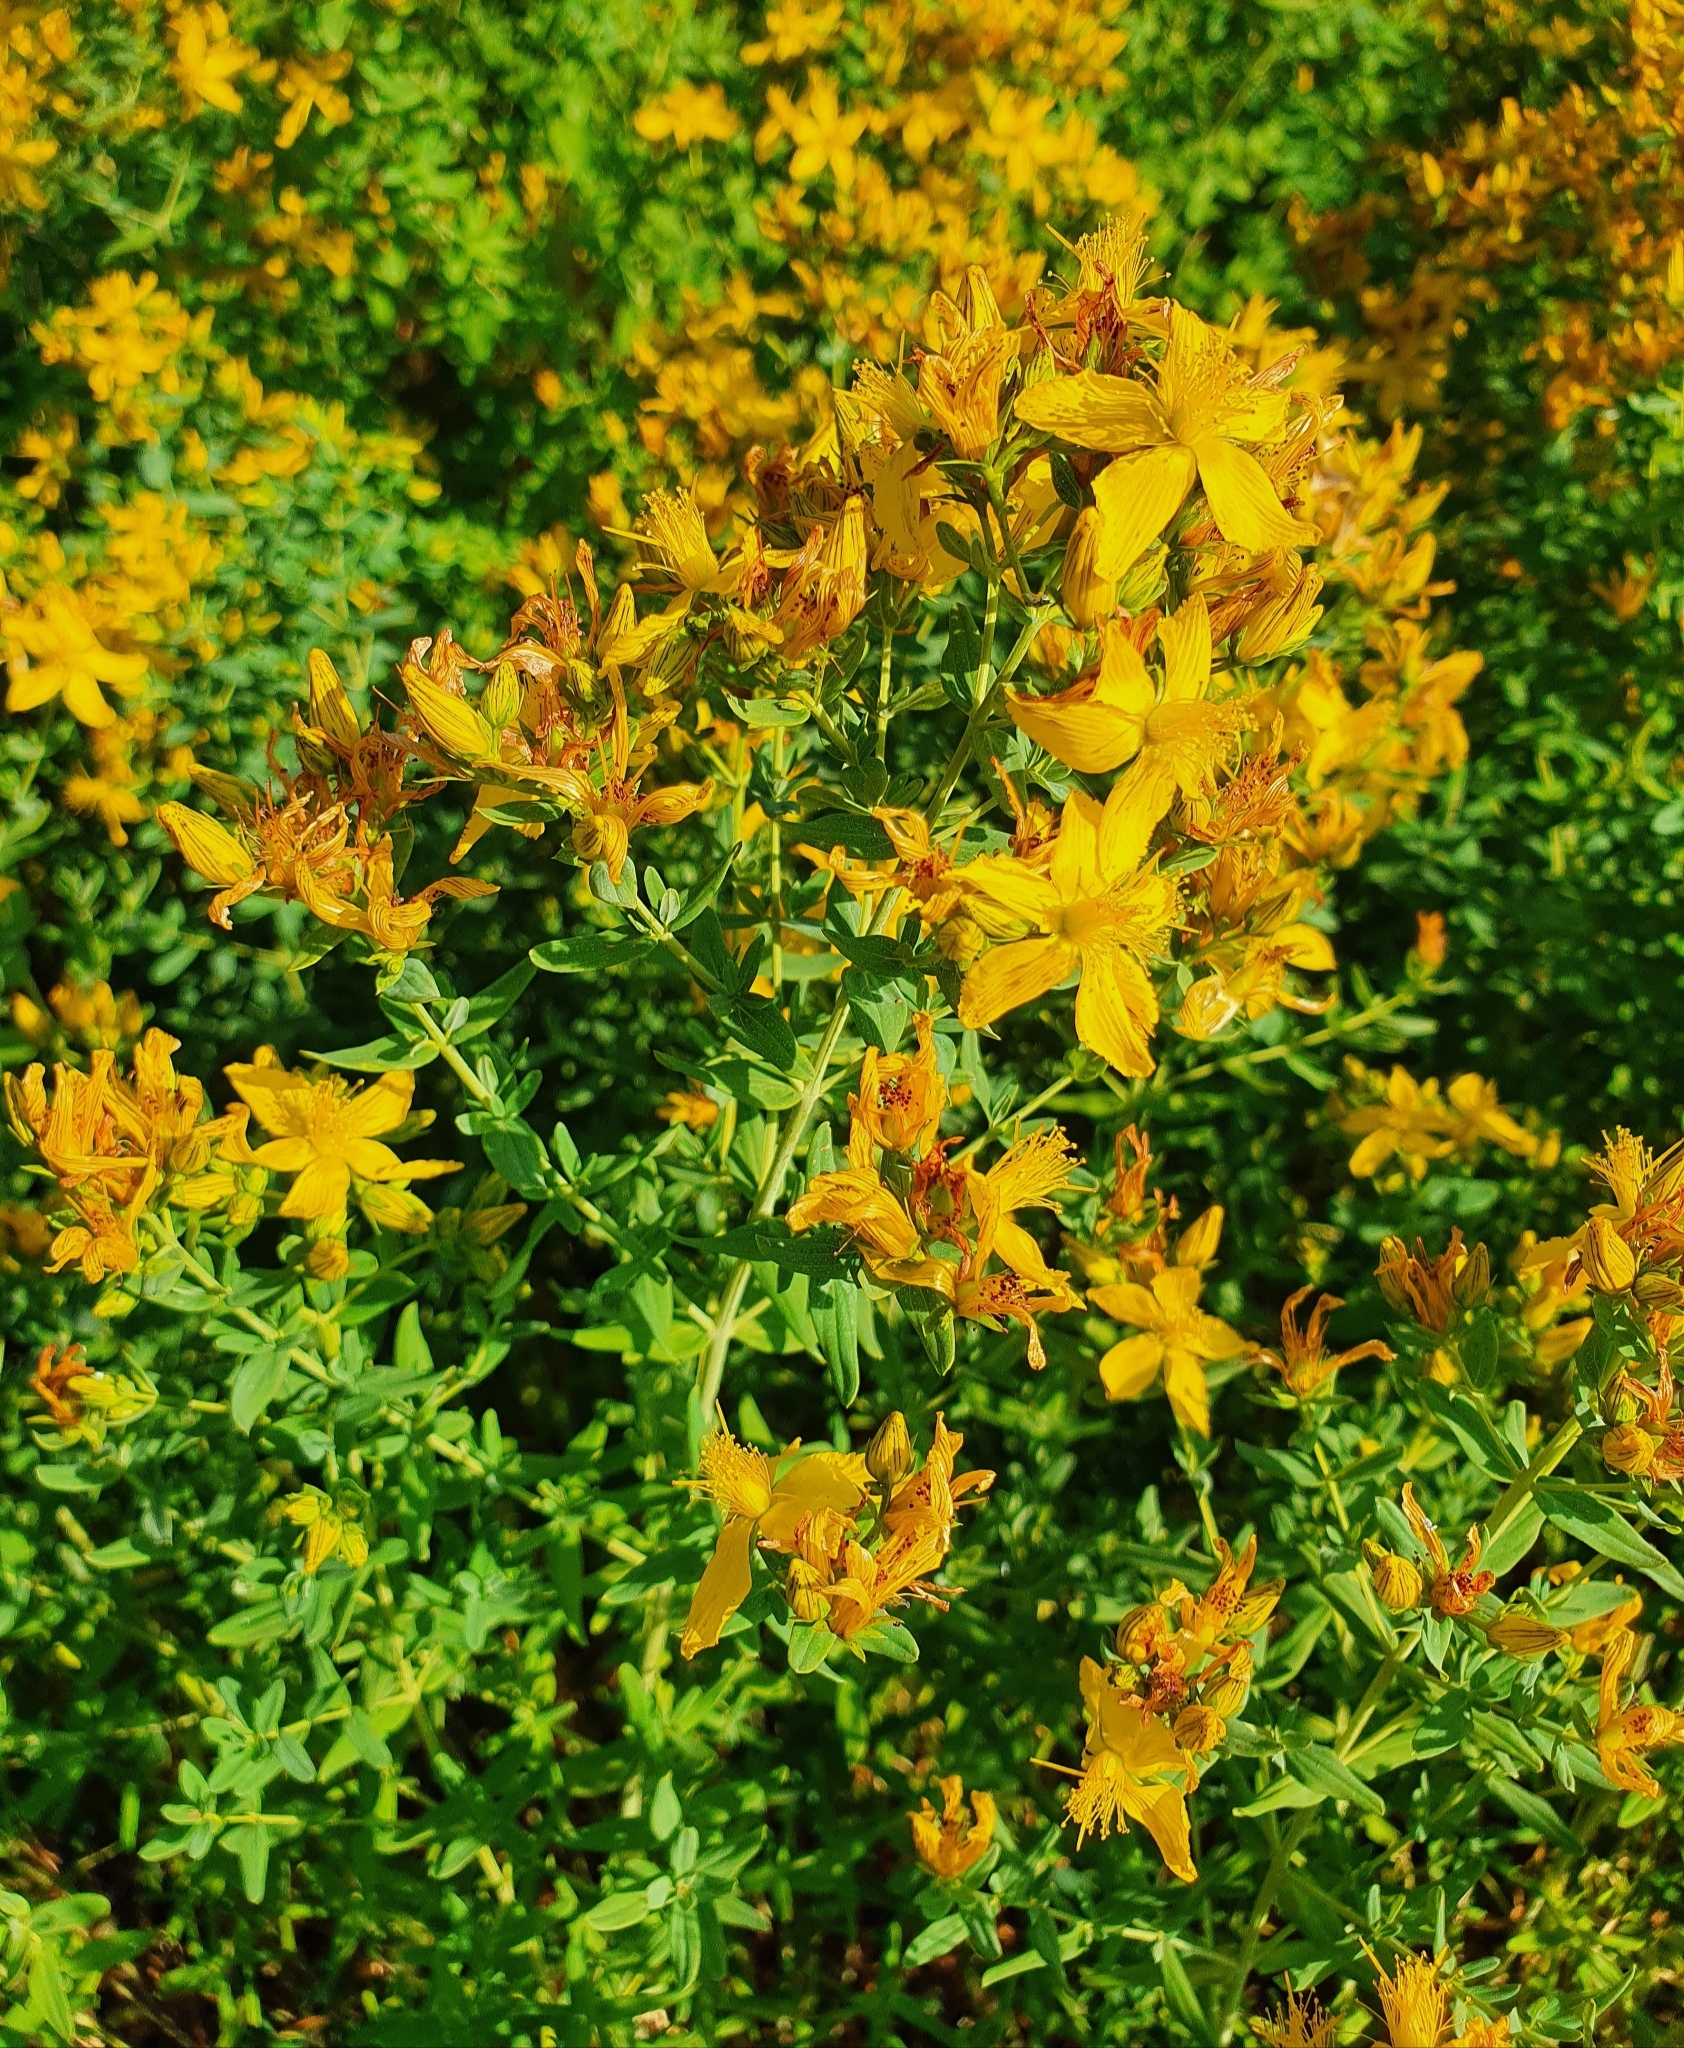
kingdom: Plantae
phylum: Tracheophyta
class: Magnoliopsida
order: Malpighiales
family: Hypericaceae
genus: Hypericum
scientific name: Hypericum perforatum
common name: Common st. johnswort
